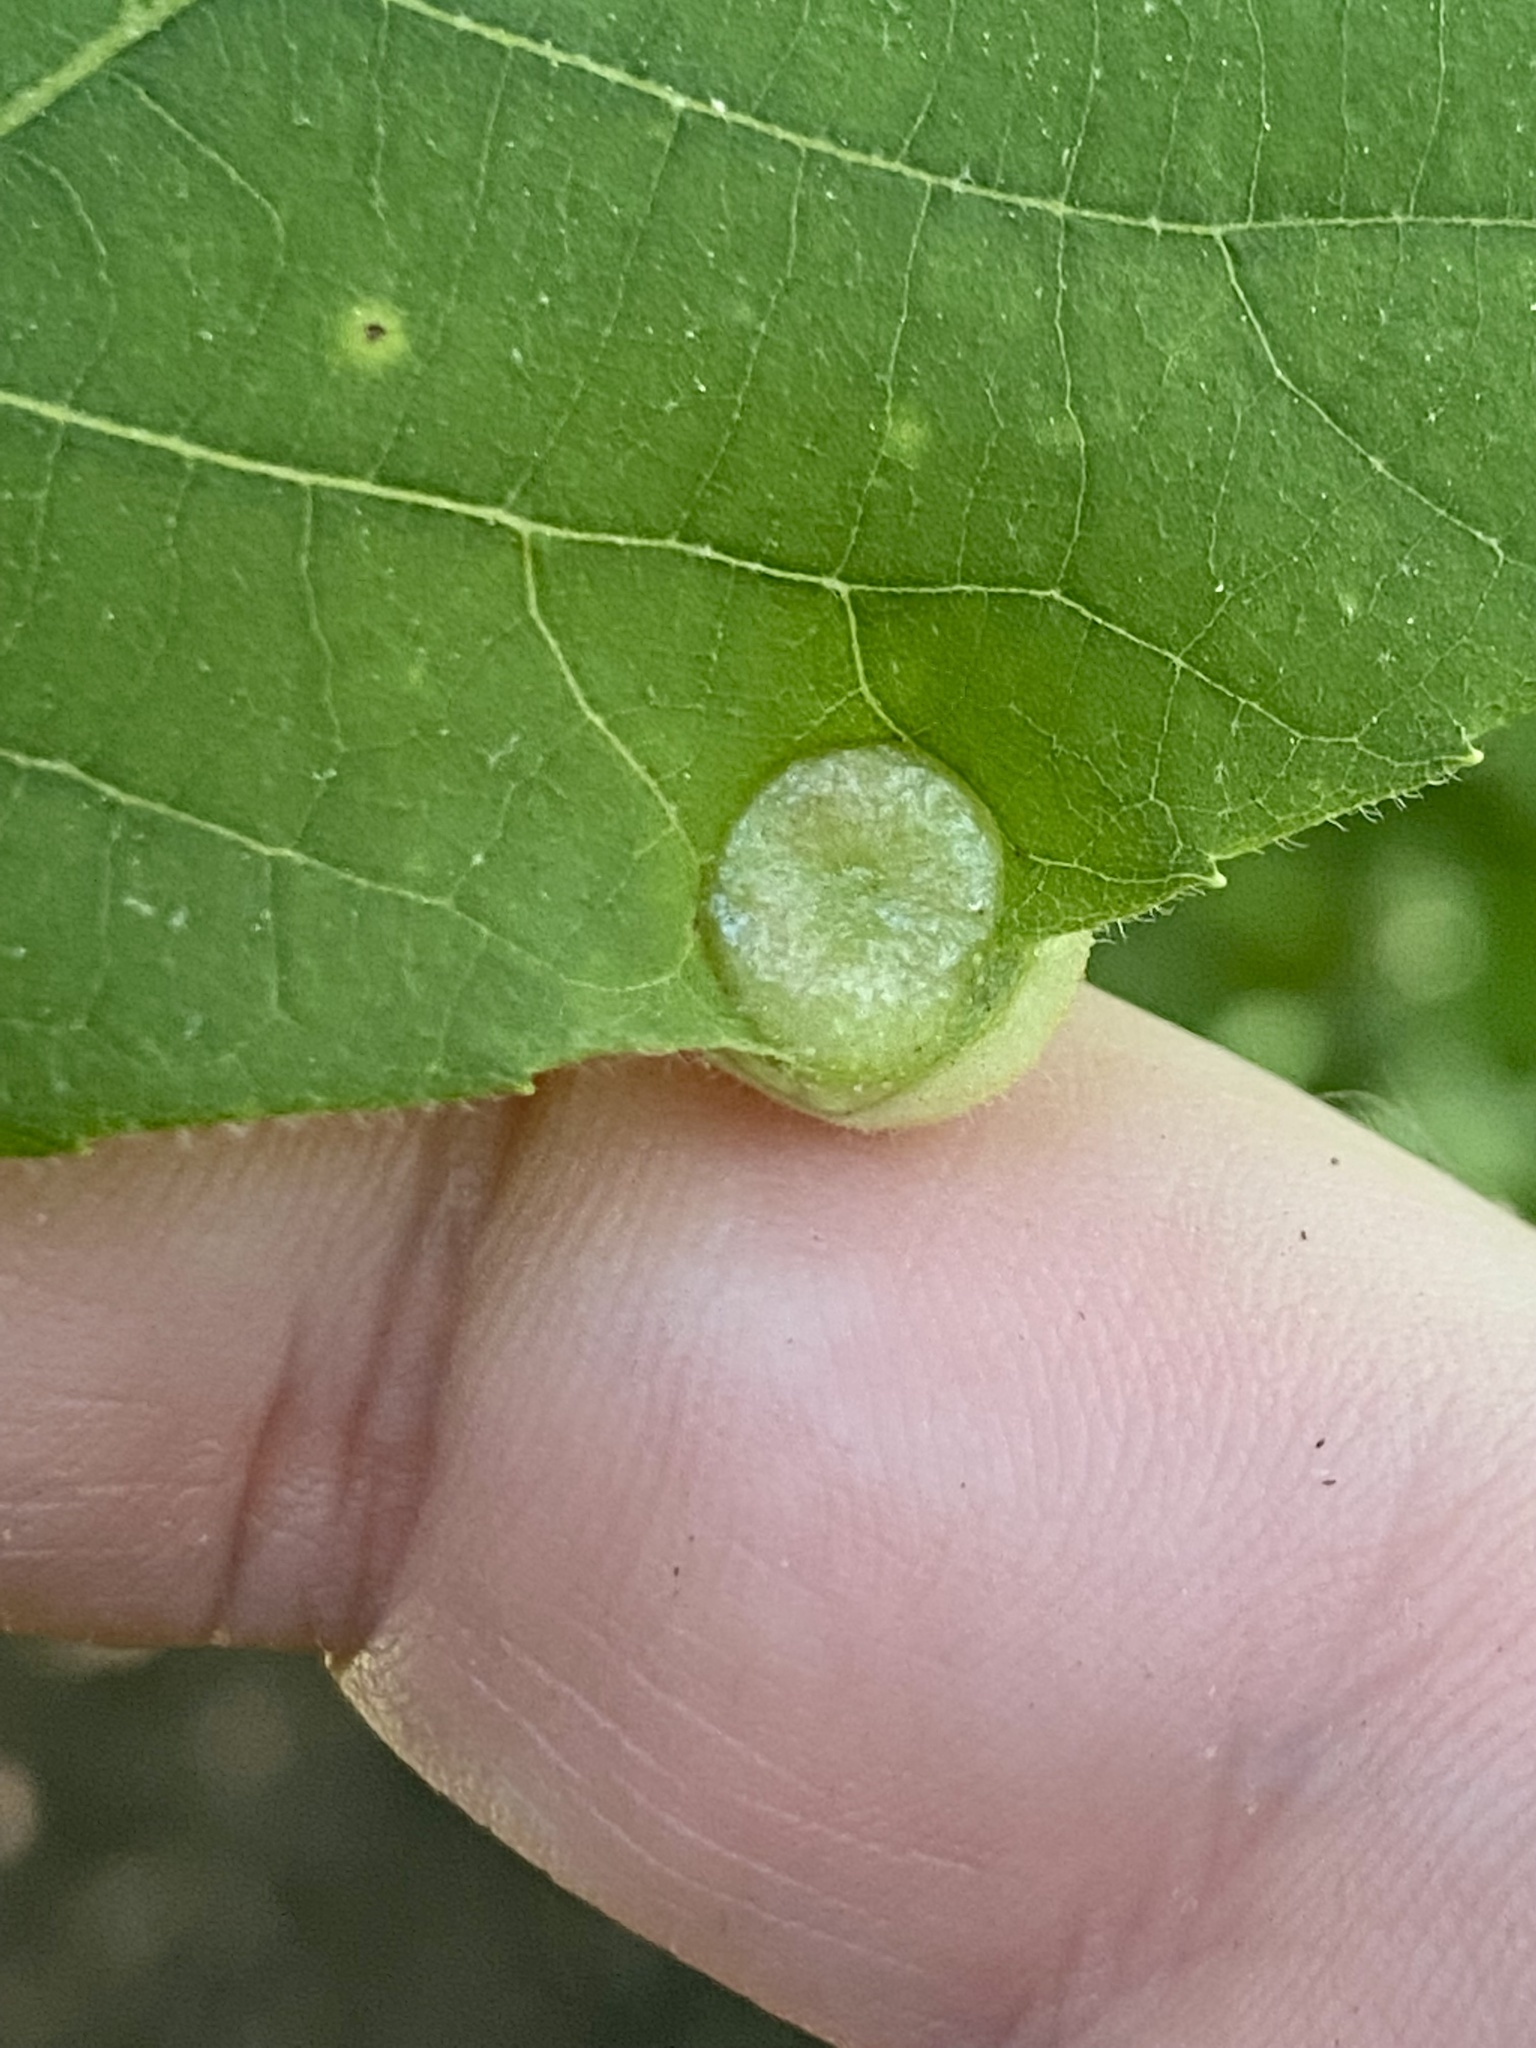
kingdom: Animalia
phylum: Arthropoda
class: Insecta
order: Hemiptera
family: Phylloxeridae
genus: Phylloxera
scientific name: Phylloxera caryae-avellana
